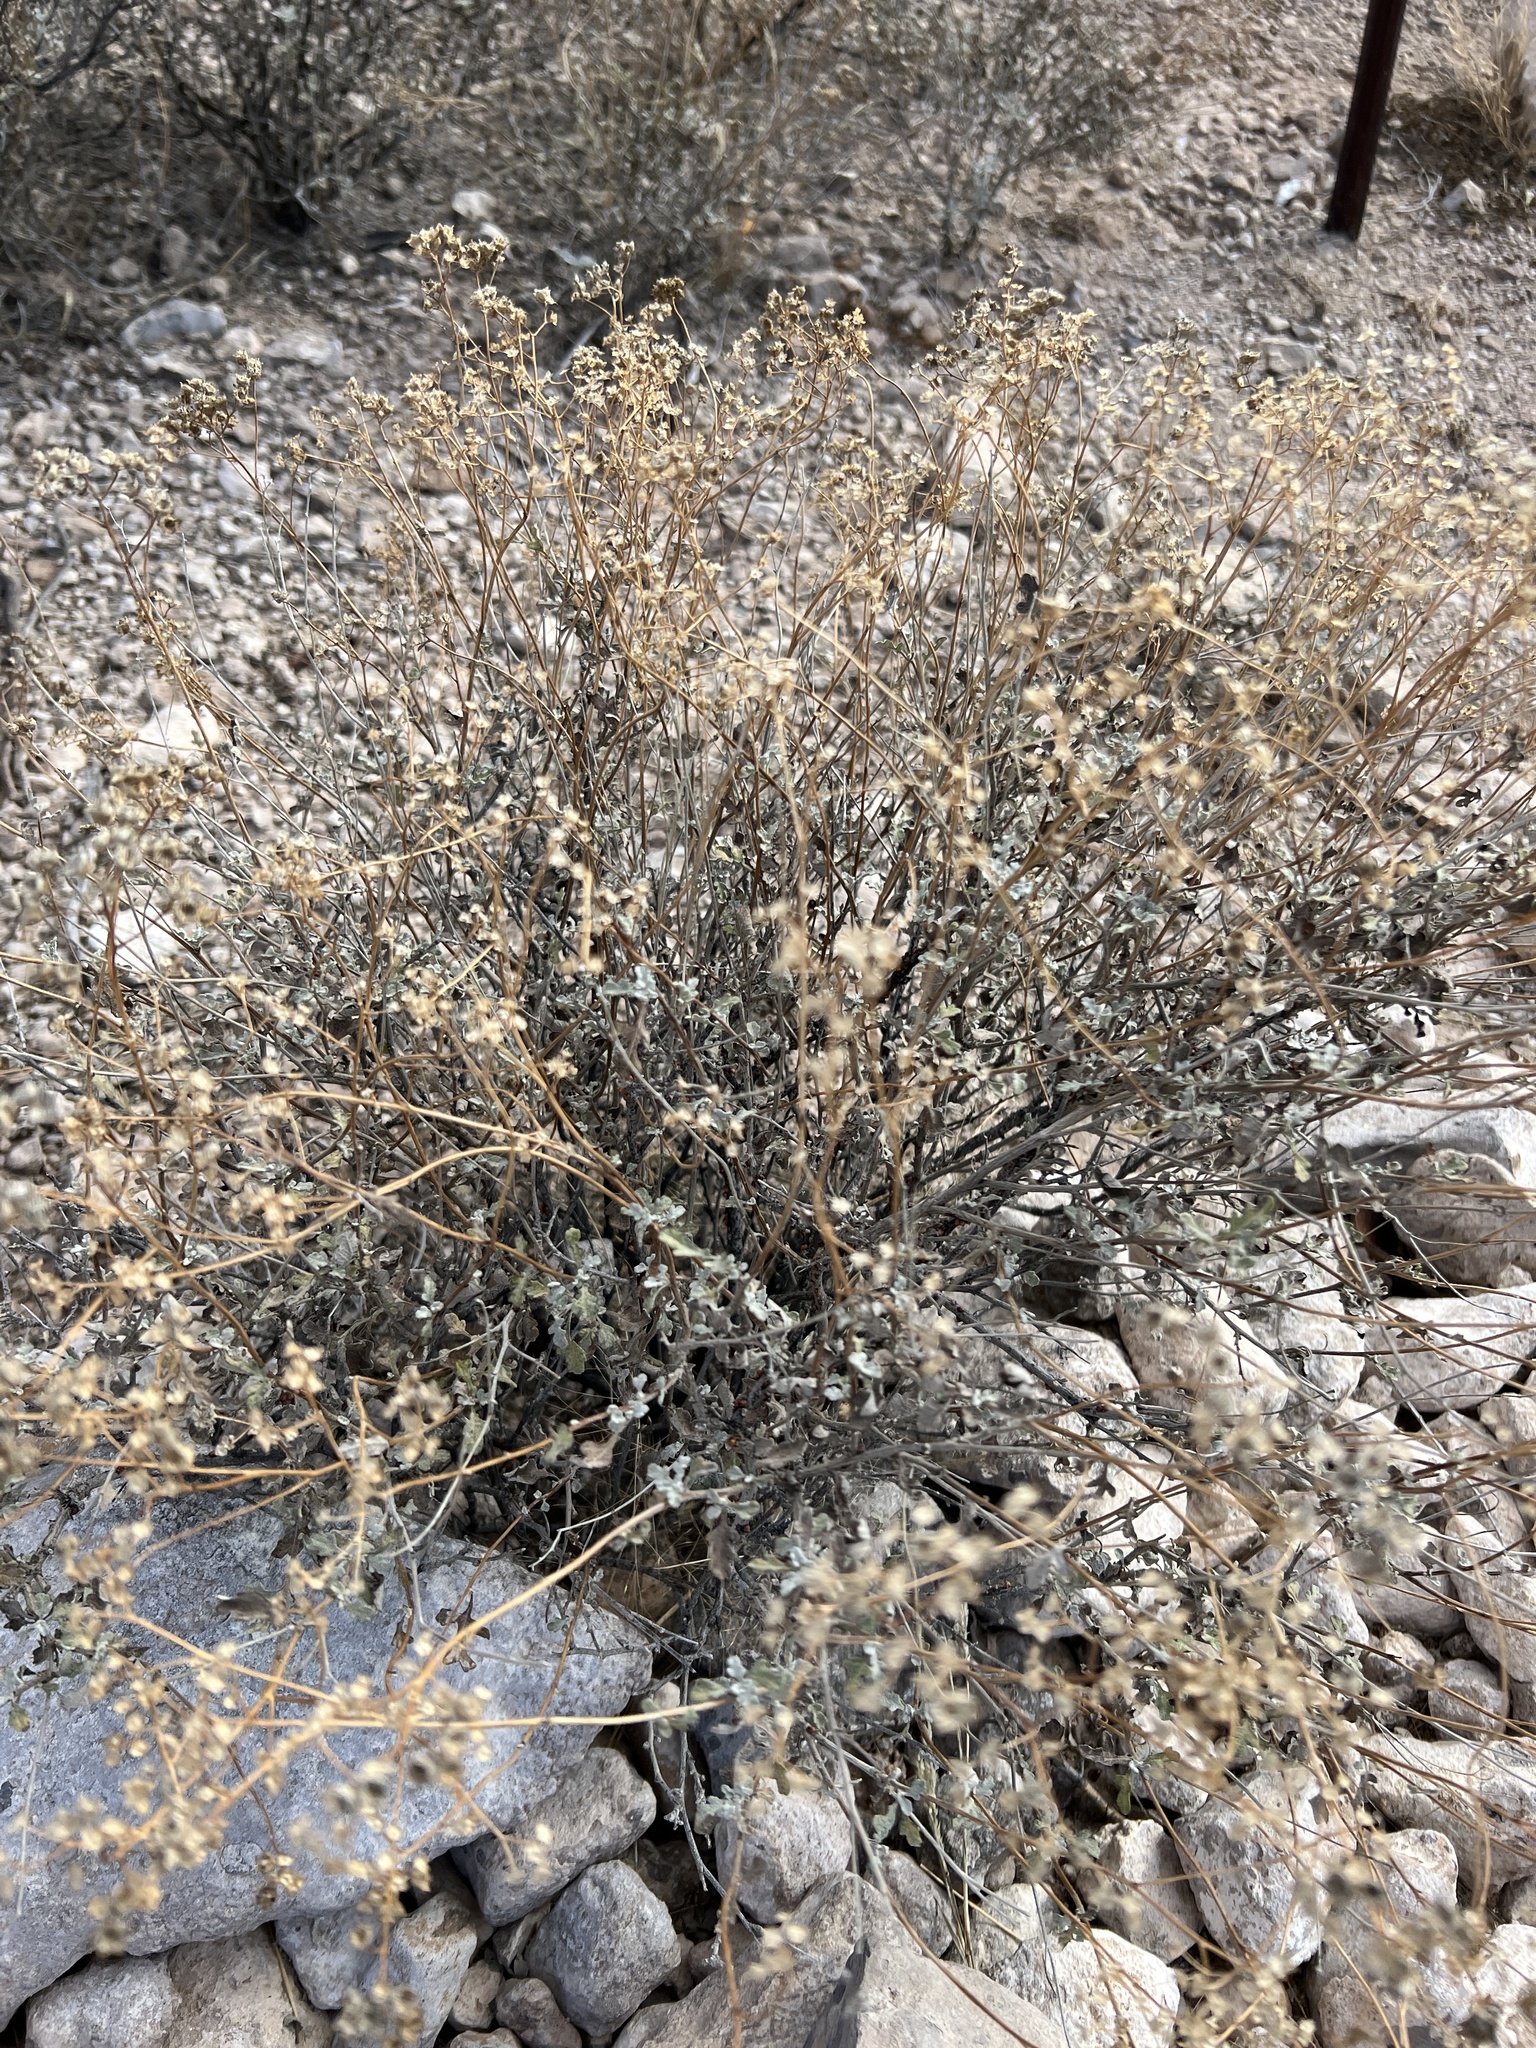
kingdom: Plantae
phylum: Tracheophyta
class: Magnoliopsida
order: Asterales
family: Asteraceae
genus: Parthenium
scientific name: Parthenium incanum
